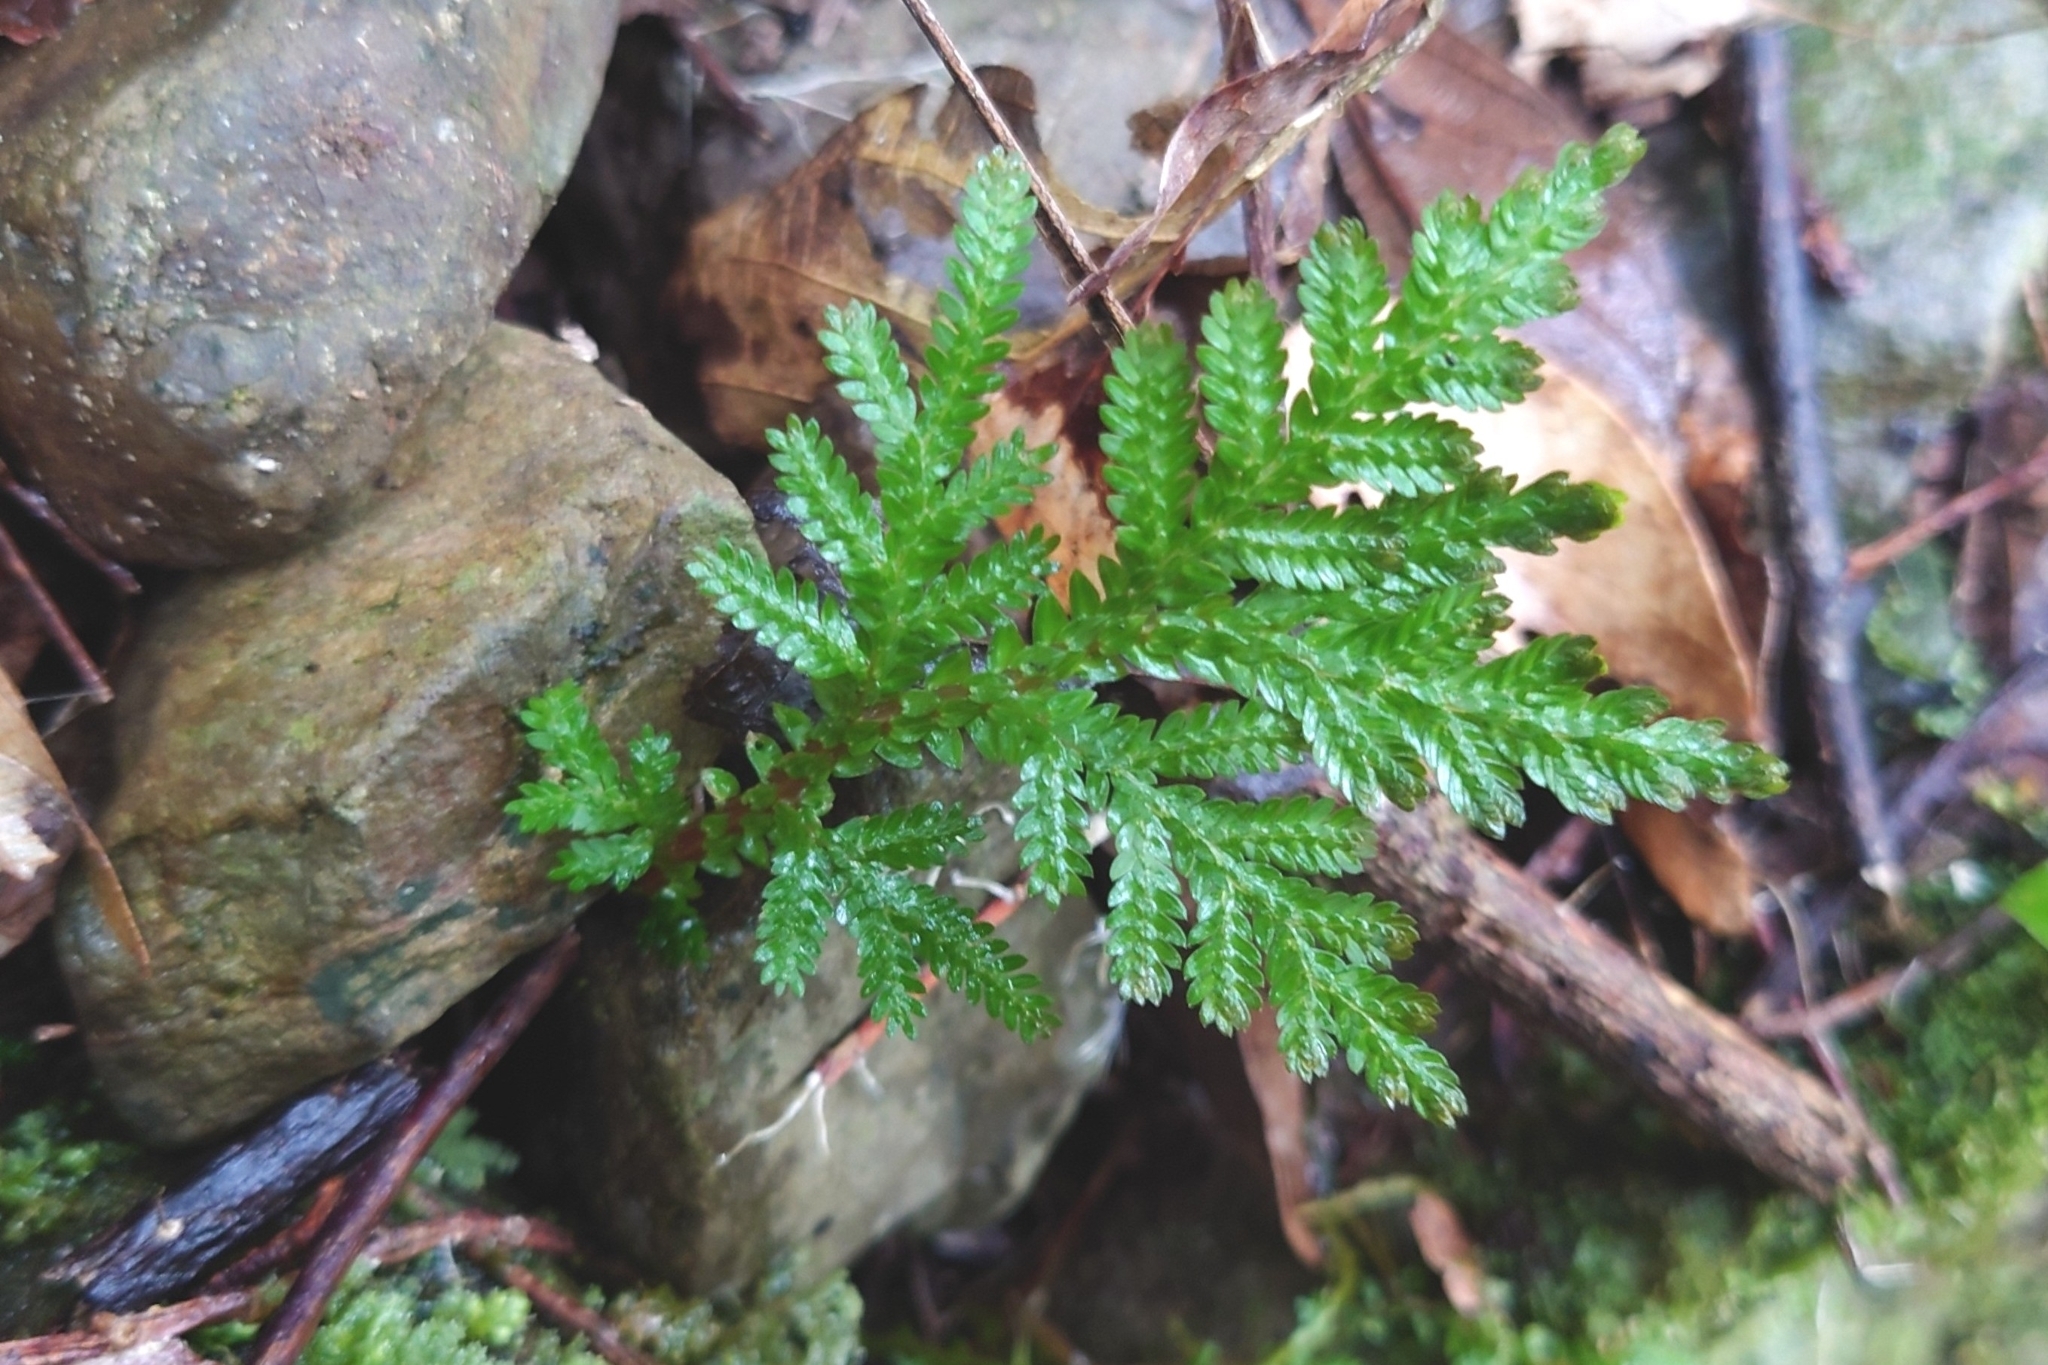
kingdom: Plantae
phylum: Tracheophyta
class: Lycopodiopsida
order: Selaginellales
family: Selaginellaceae
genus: Selaginella
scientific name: Selaginella delicatula
